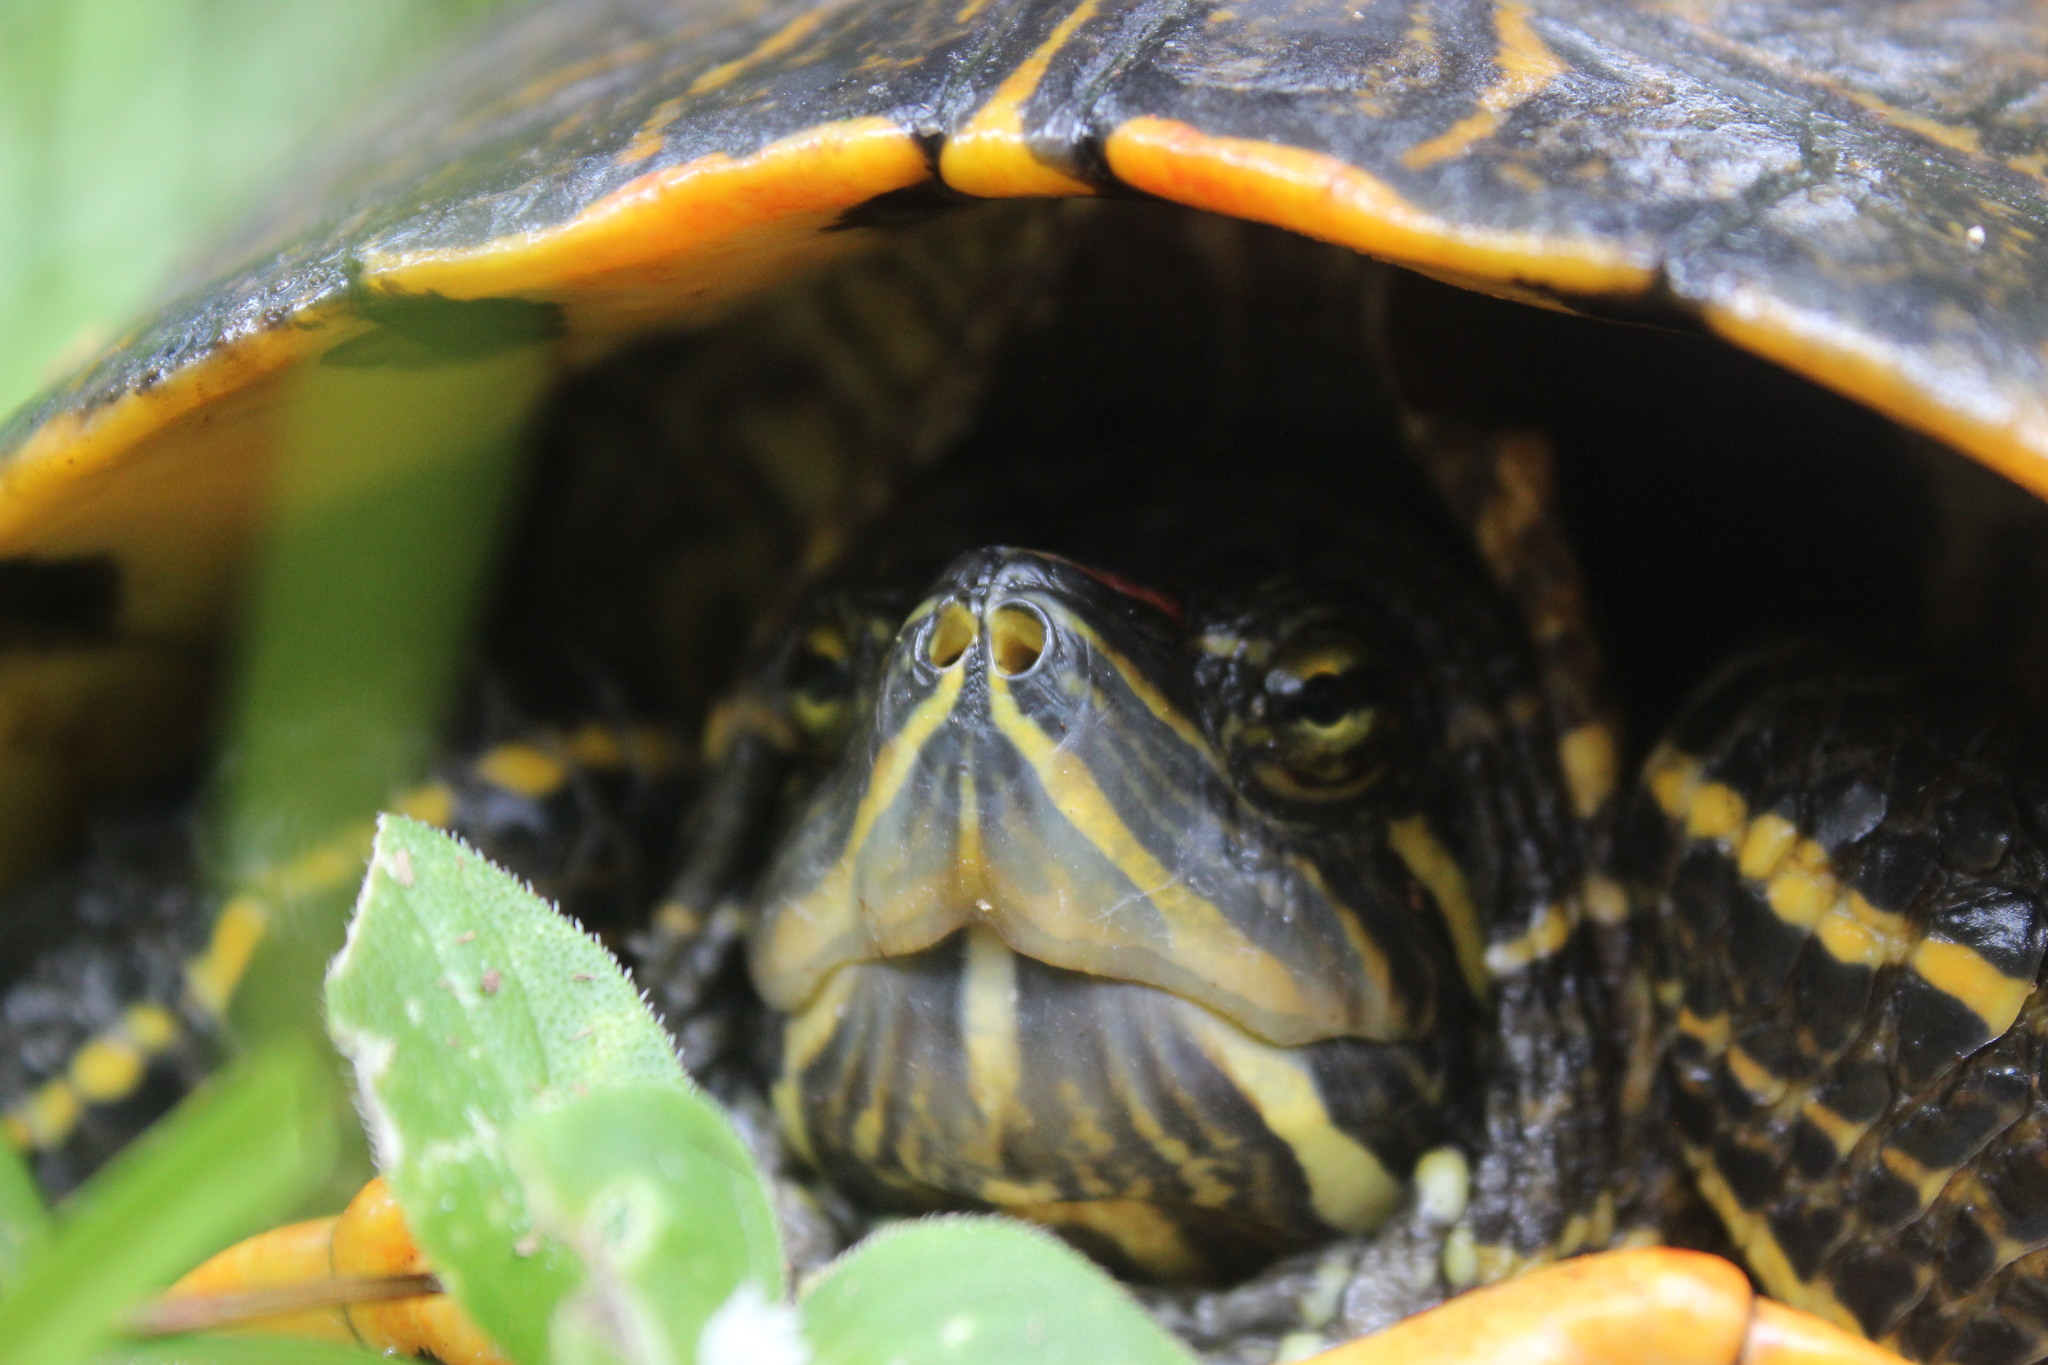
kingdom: Animalia
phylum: Chordata
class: Testudines
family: Emydidae
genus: Trachemys
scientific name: Trachemys scripta
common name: Slider
